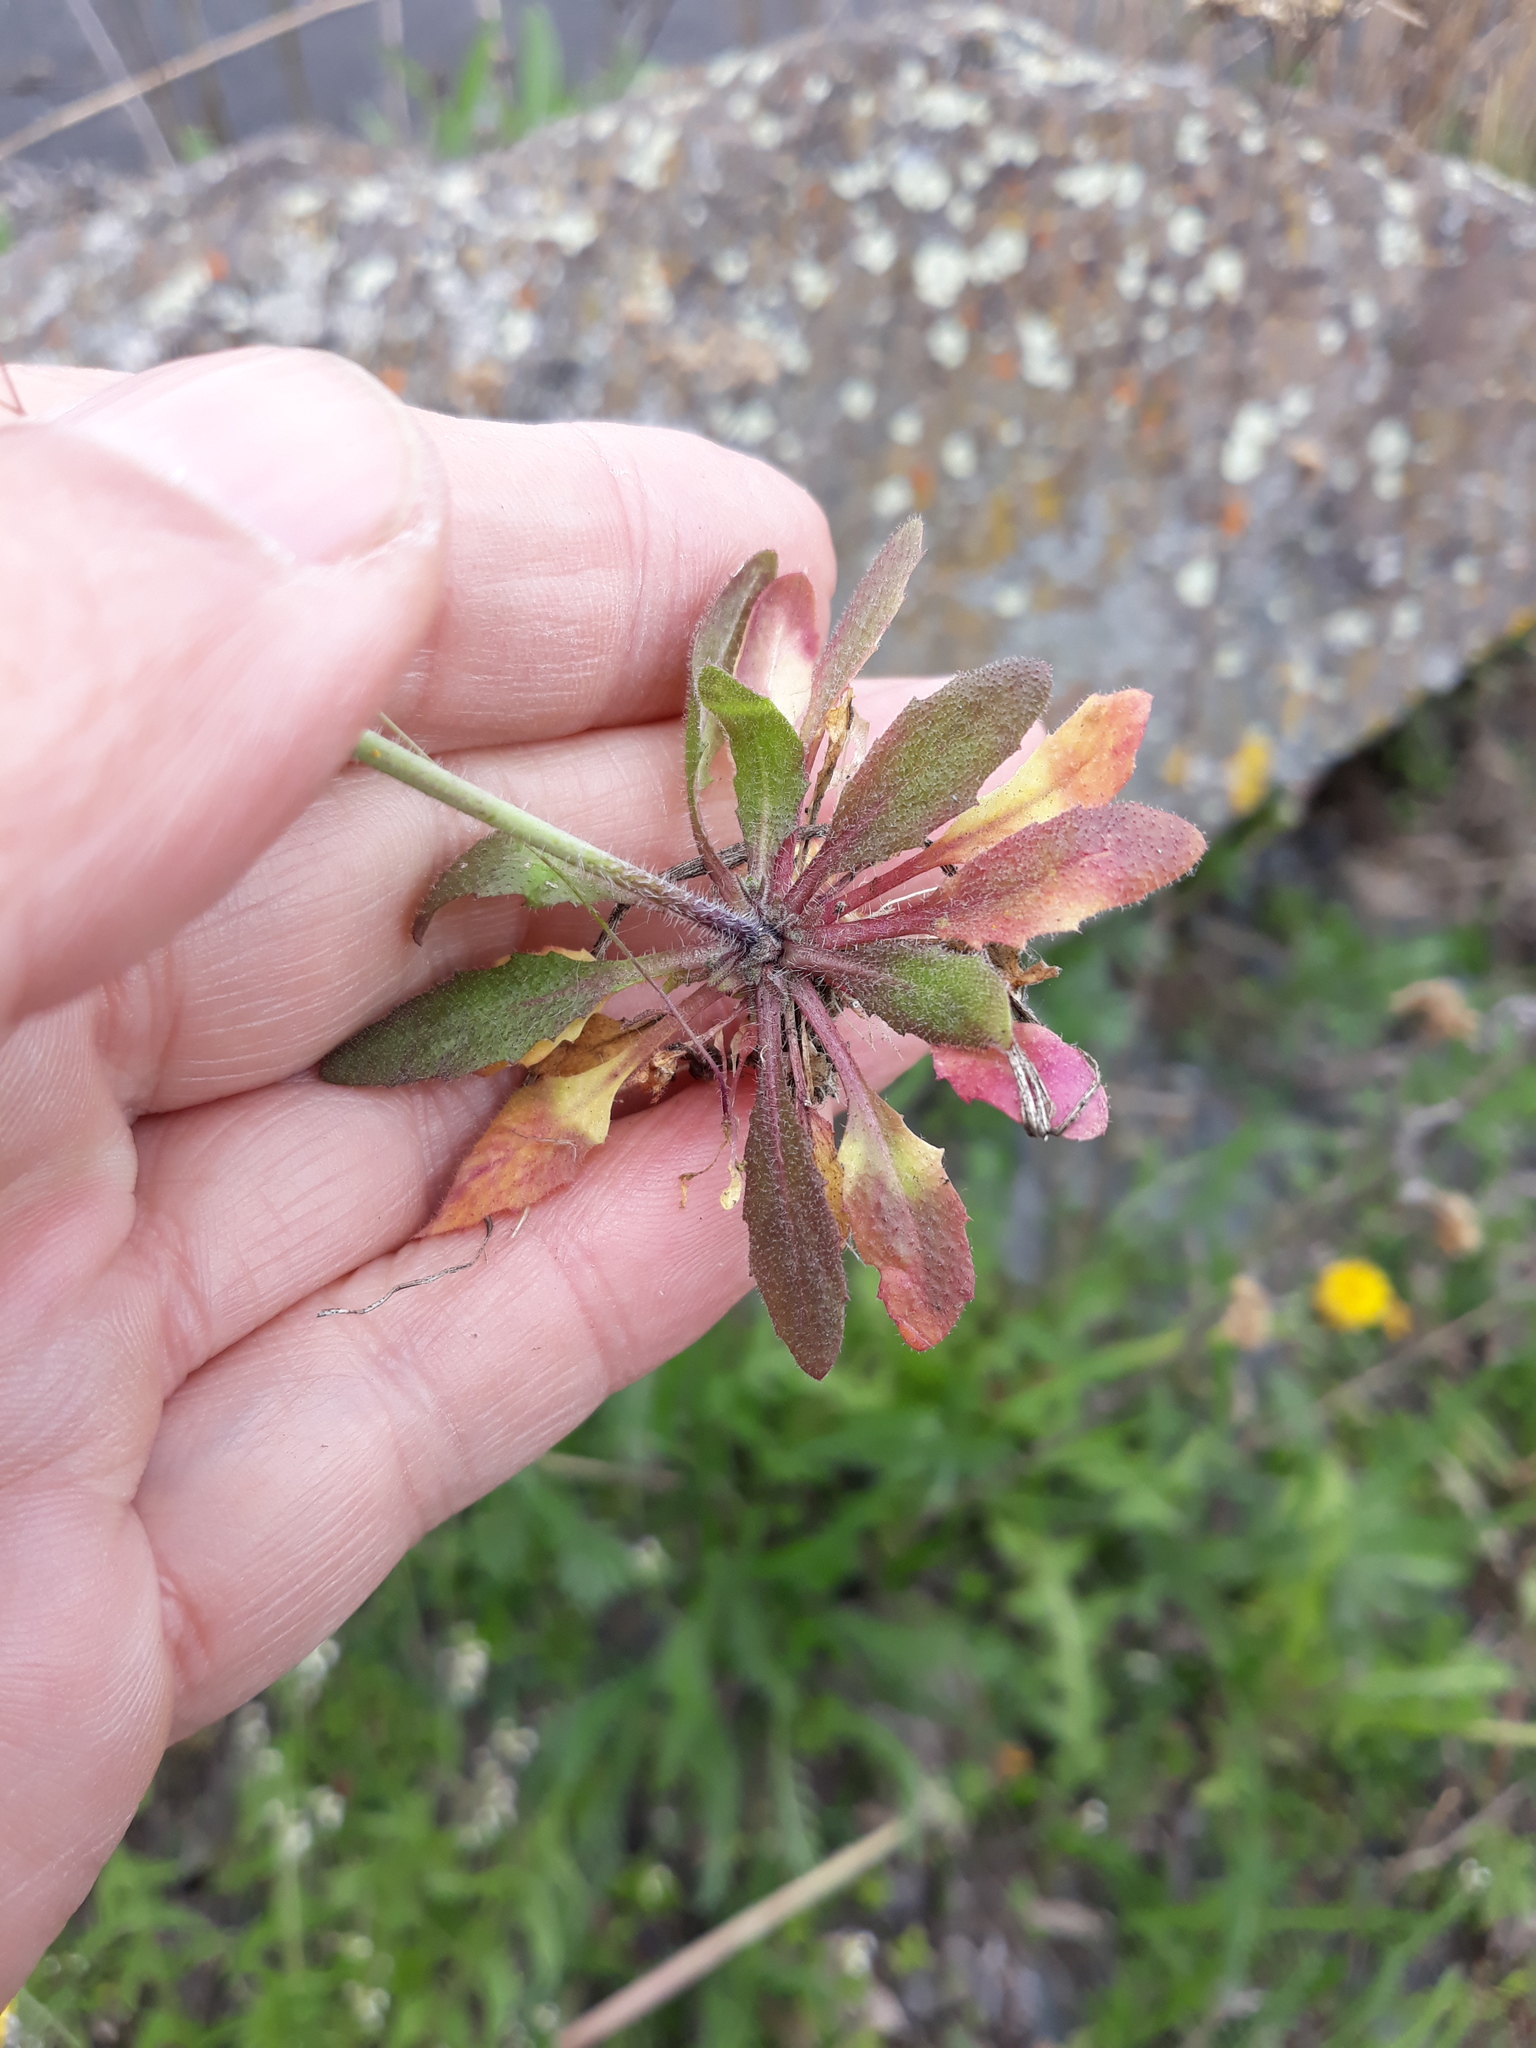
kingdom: Plantae
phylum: Tracheophyta
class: Magnoliopsida
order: Brassicales
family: Brassicaceae
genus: Arabidopsis
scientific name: Arabidopsis thaliana
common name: Thale cress
